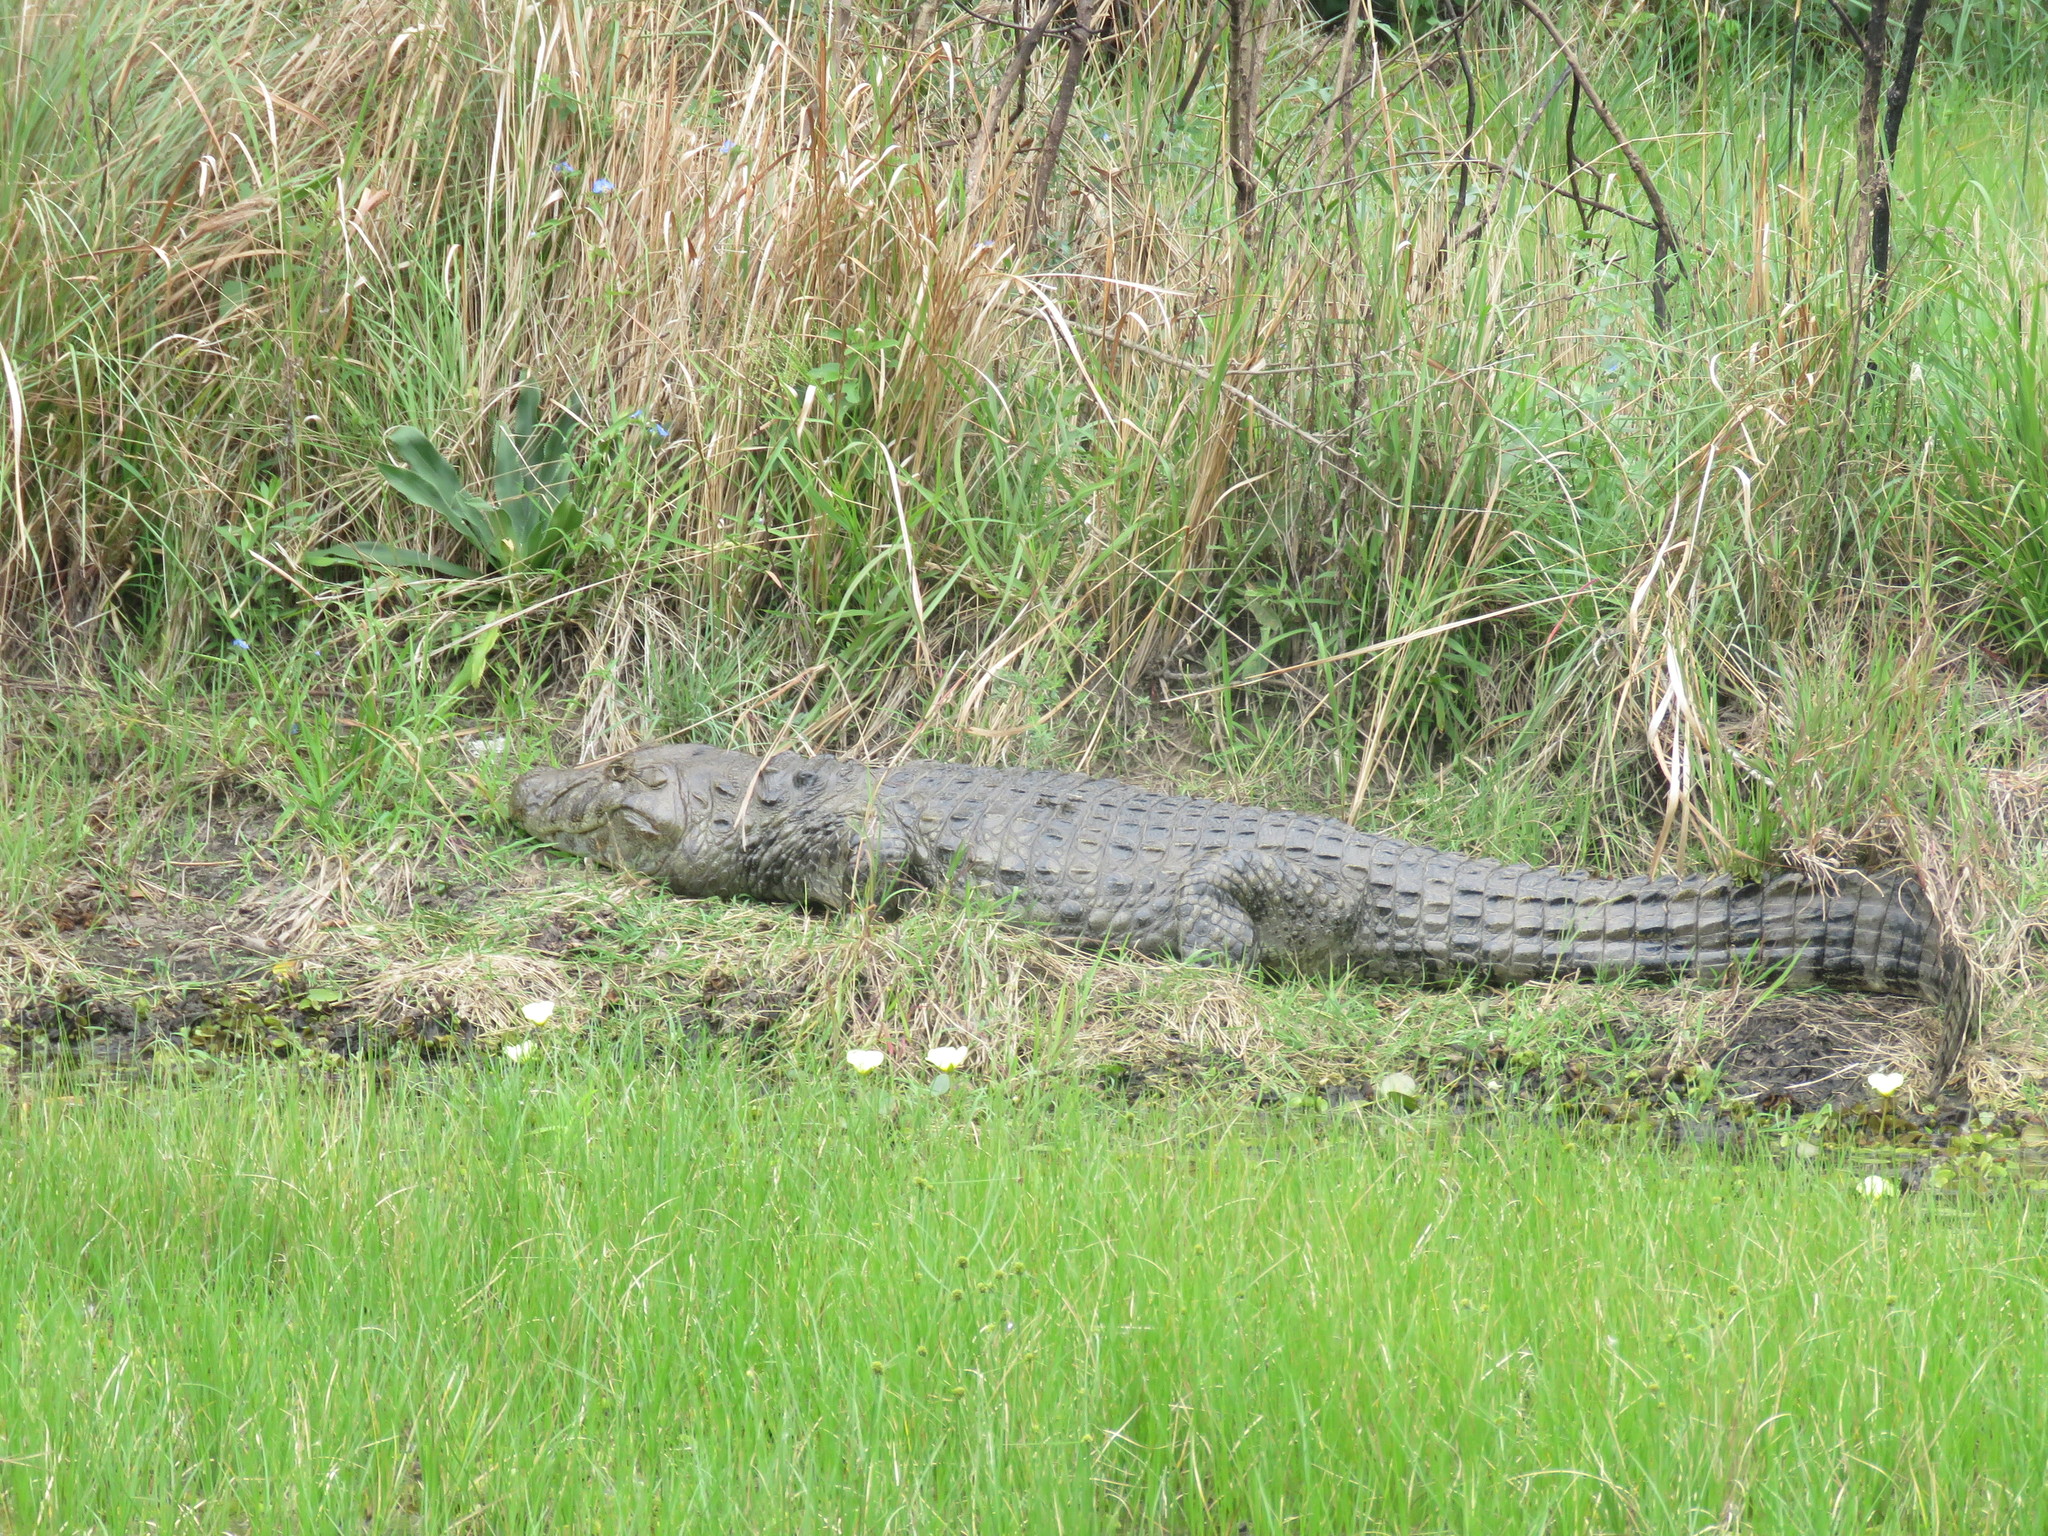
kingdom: Animalia
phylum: Chordata
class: Crocodylia
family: Alligatoridae
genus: Caiman
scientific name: Caiman latirostris
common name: Broad-snouted caiman
